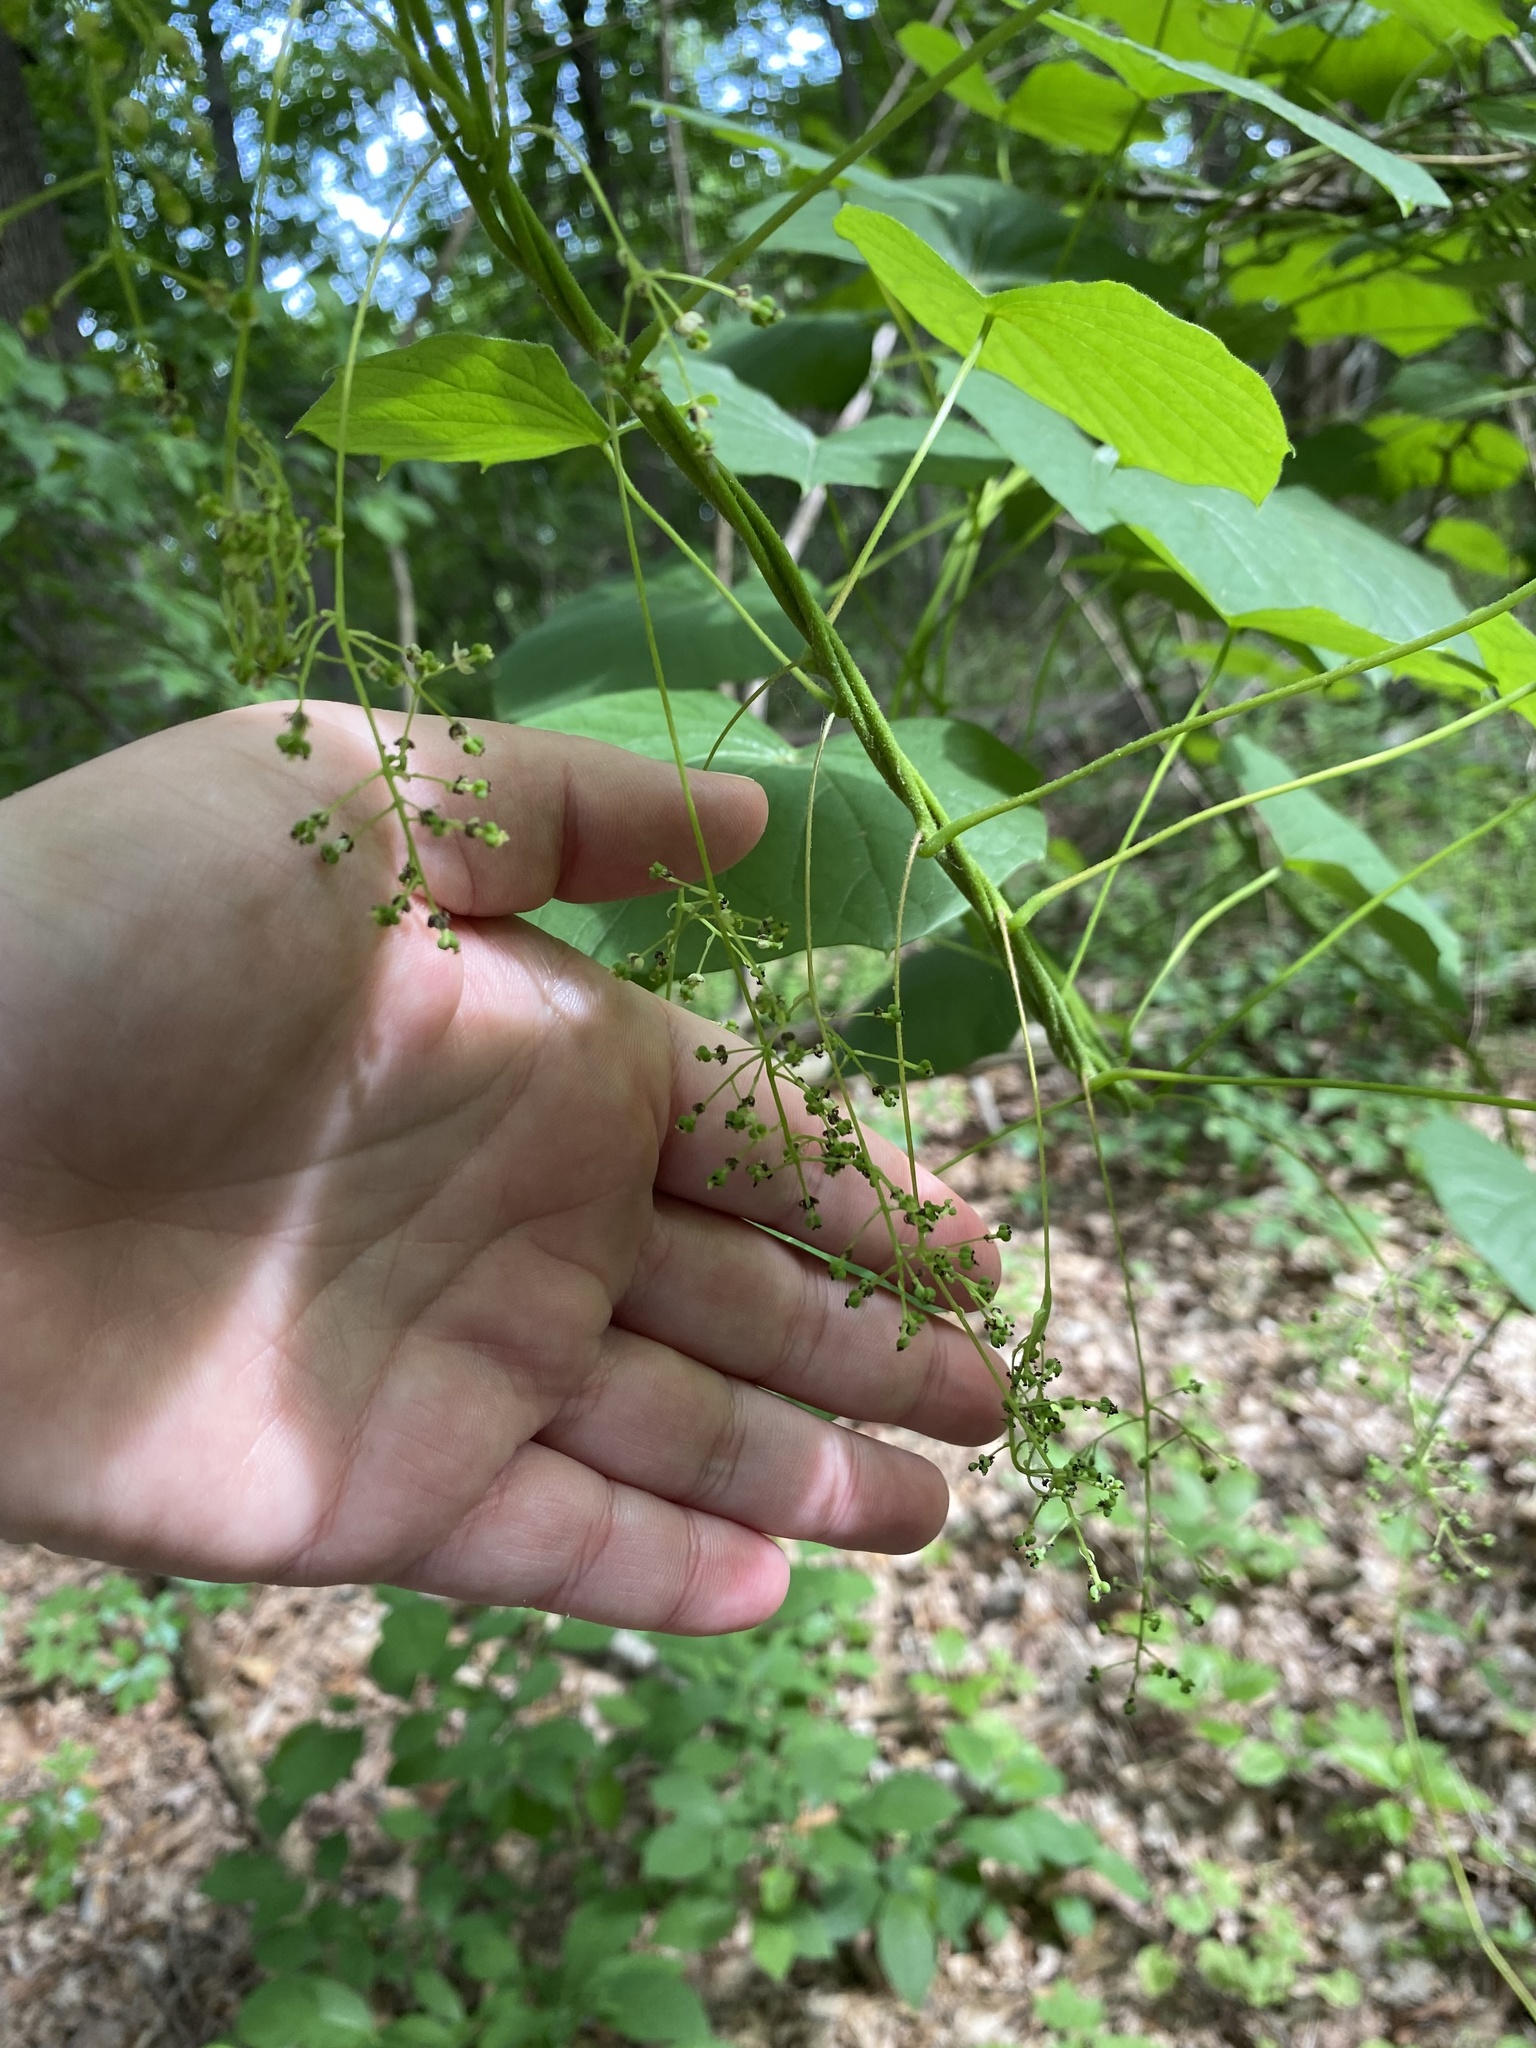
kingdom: Plantae
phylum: Tracheophyta
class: Magnoliopsida
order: Ranunculales
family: Menispermaceae
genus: Menispermum
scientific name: Menispermum canadense
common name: Moonseed
